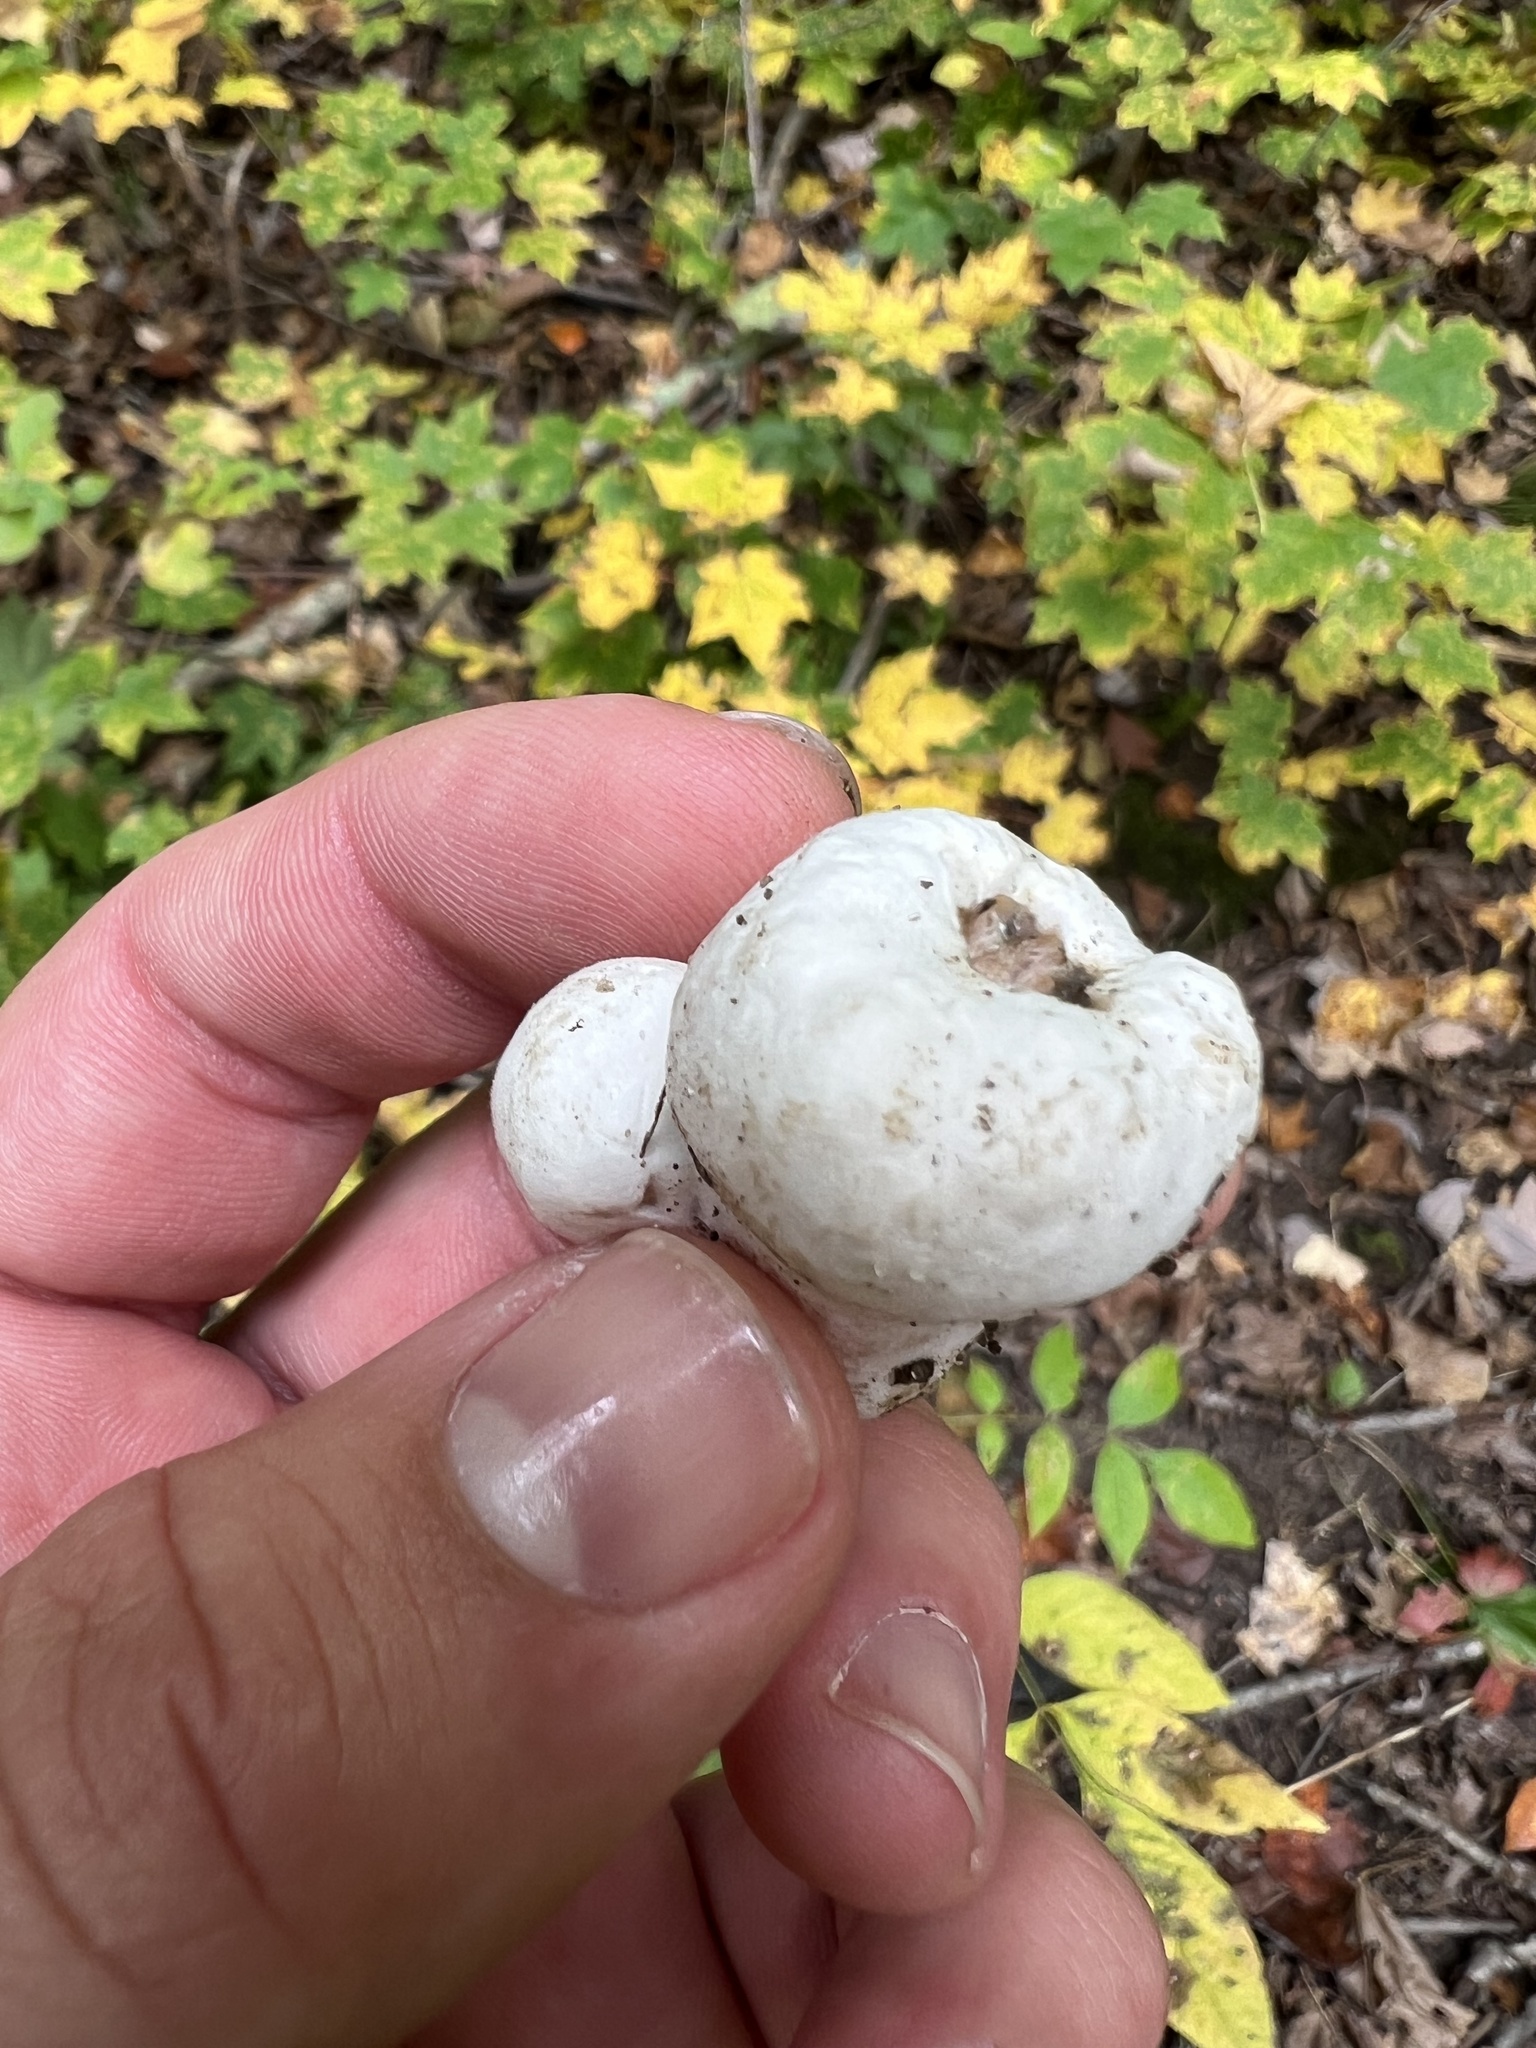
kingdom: Fungi
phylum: Basidiomycota
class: Agaricomycetes
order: Agaricales
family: Entolomataceae
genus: Entoloma
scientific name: Entoloma abortivum
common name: Aborted entoloma
